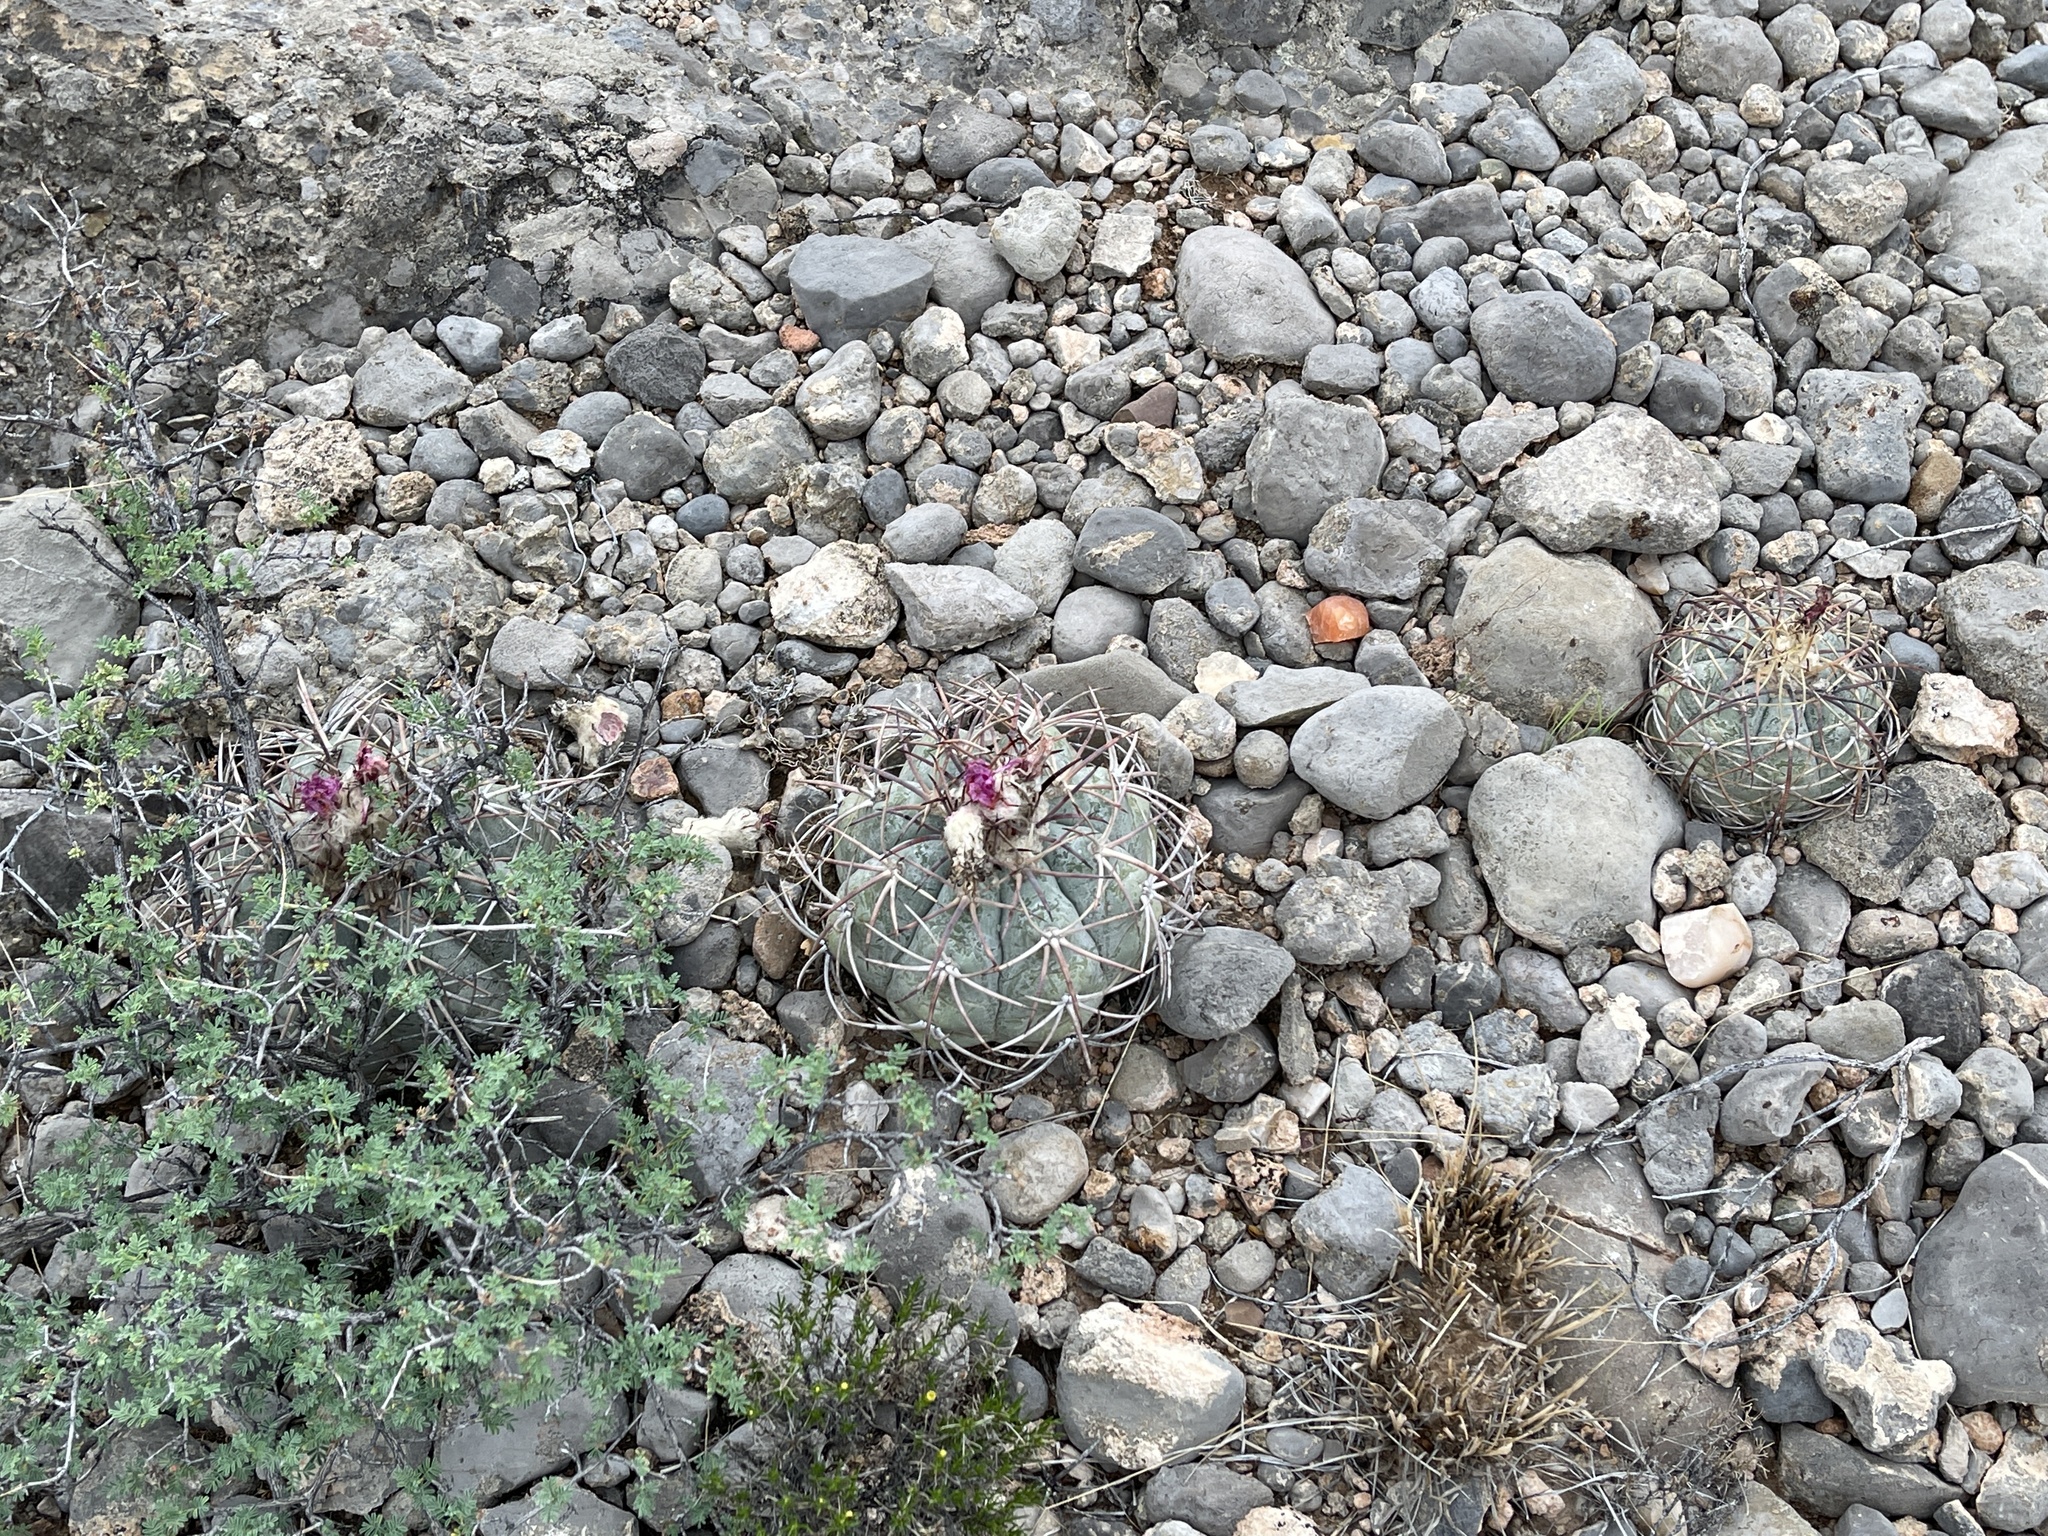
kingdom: Plantae
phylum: Tracheophyta
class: Magnoliopsida
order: Caryophyllales
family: Cactaceae
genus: Echinocactus
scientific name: Echinocactus horizonthalonius
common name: Devilshead
